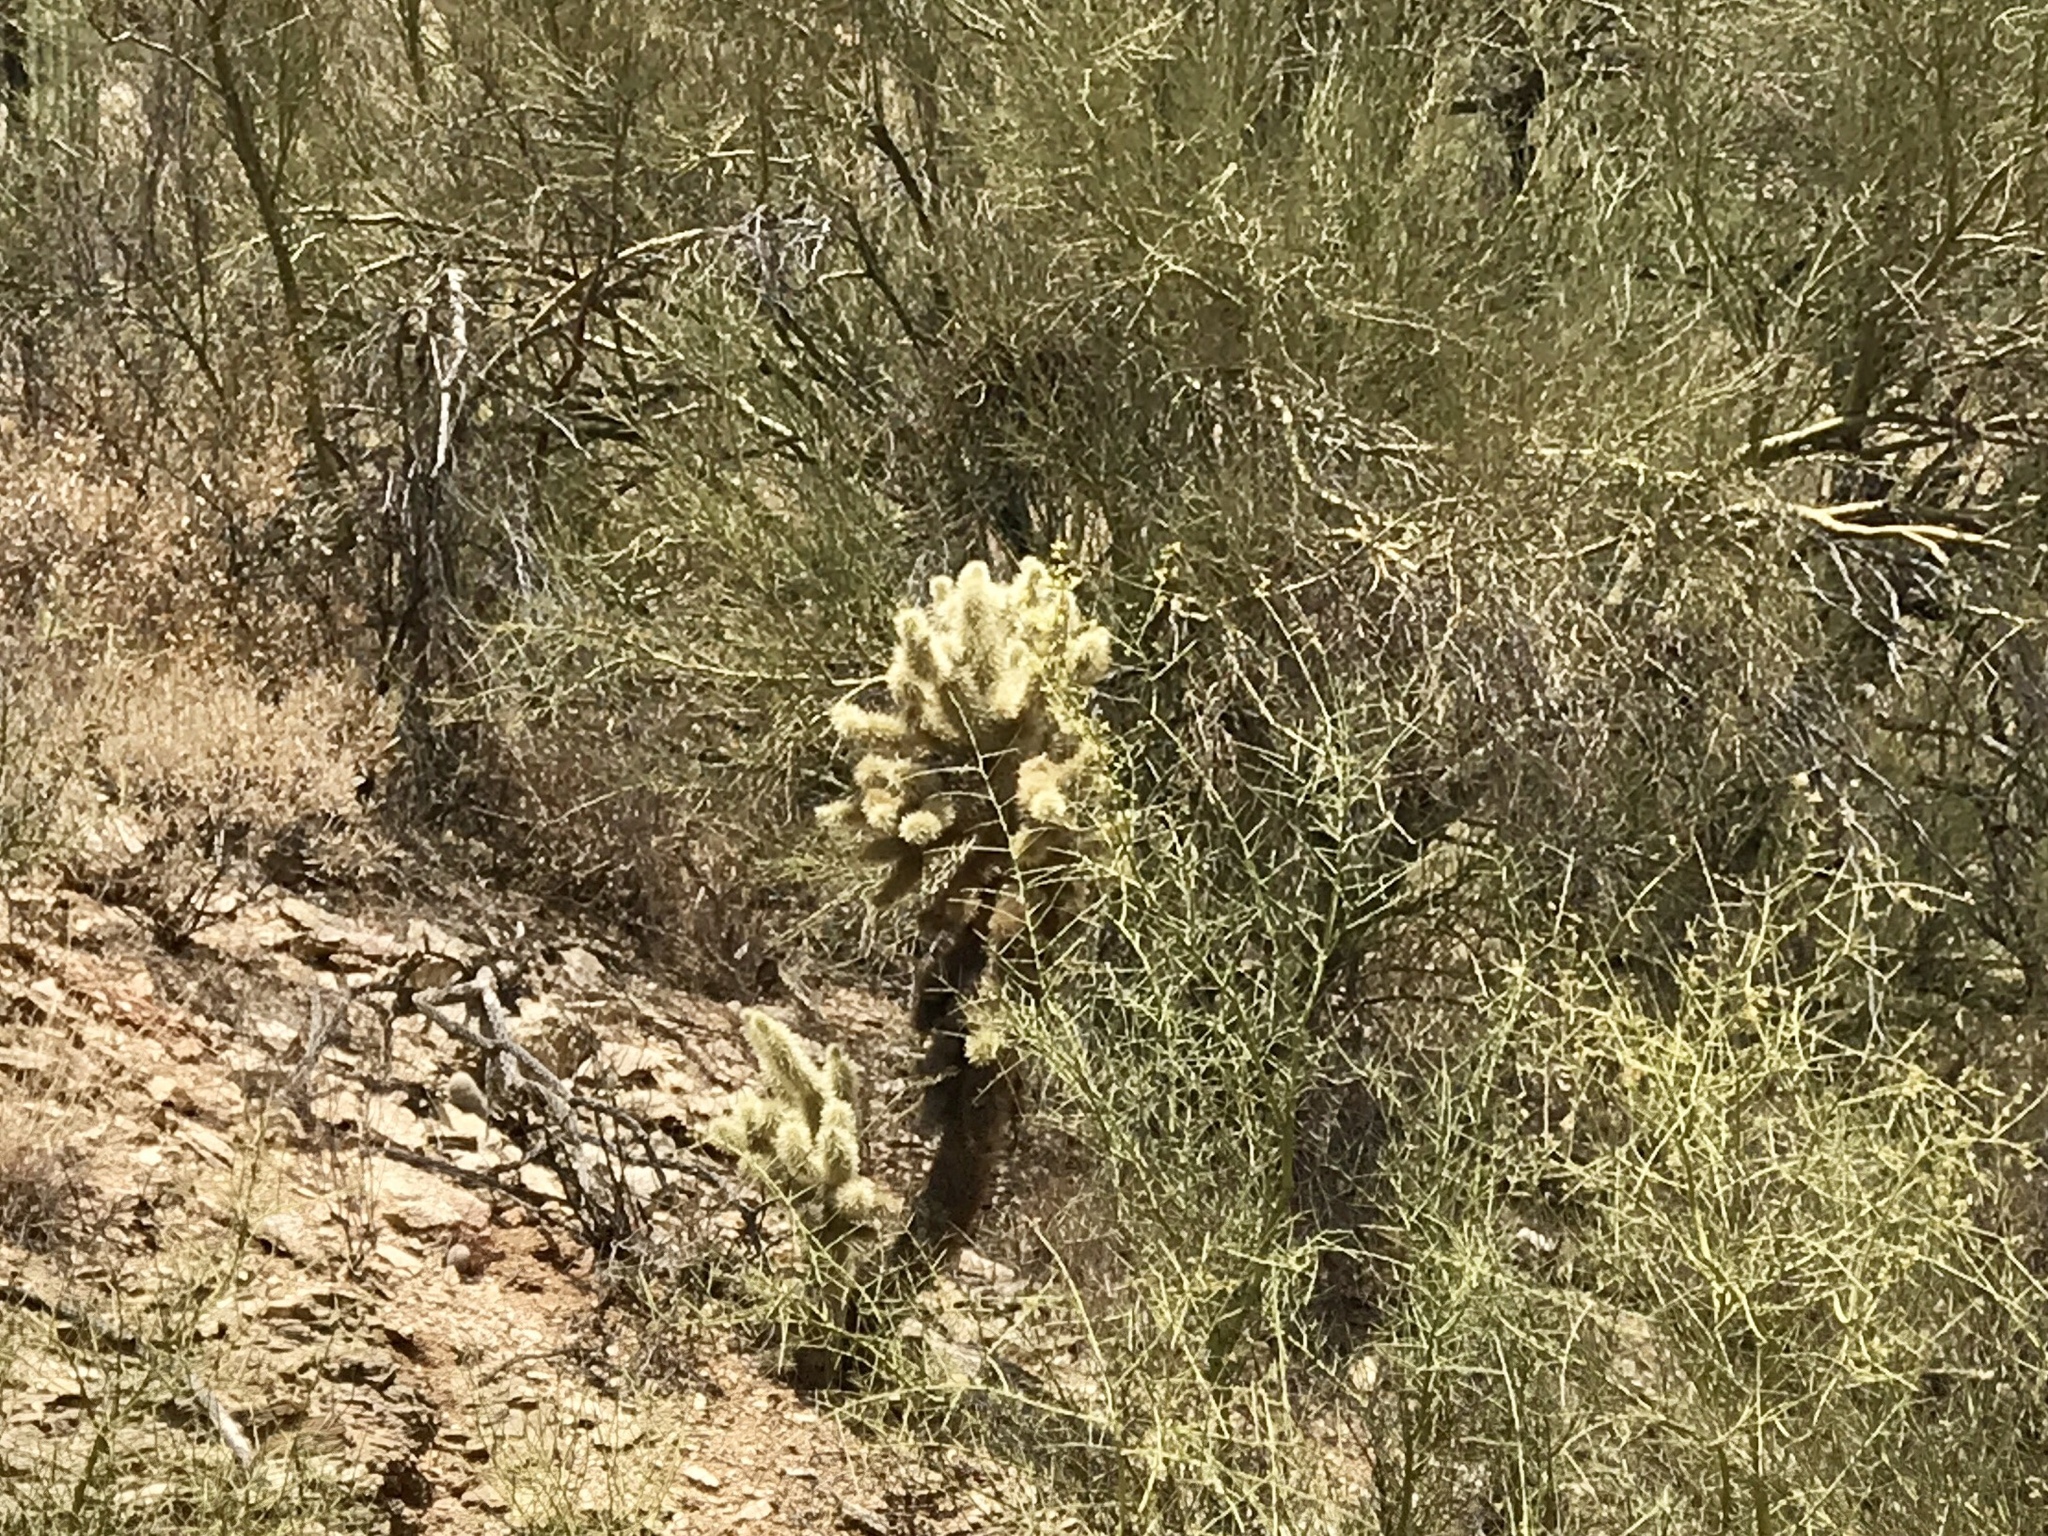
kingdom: Plantae
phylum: Tracheophyta
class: Magnoliopsida
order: Caryophyllales
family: Cactaceae
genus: Cylindropuntia
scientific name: Cylindropuntia fosbergii
